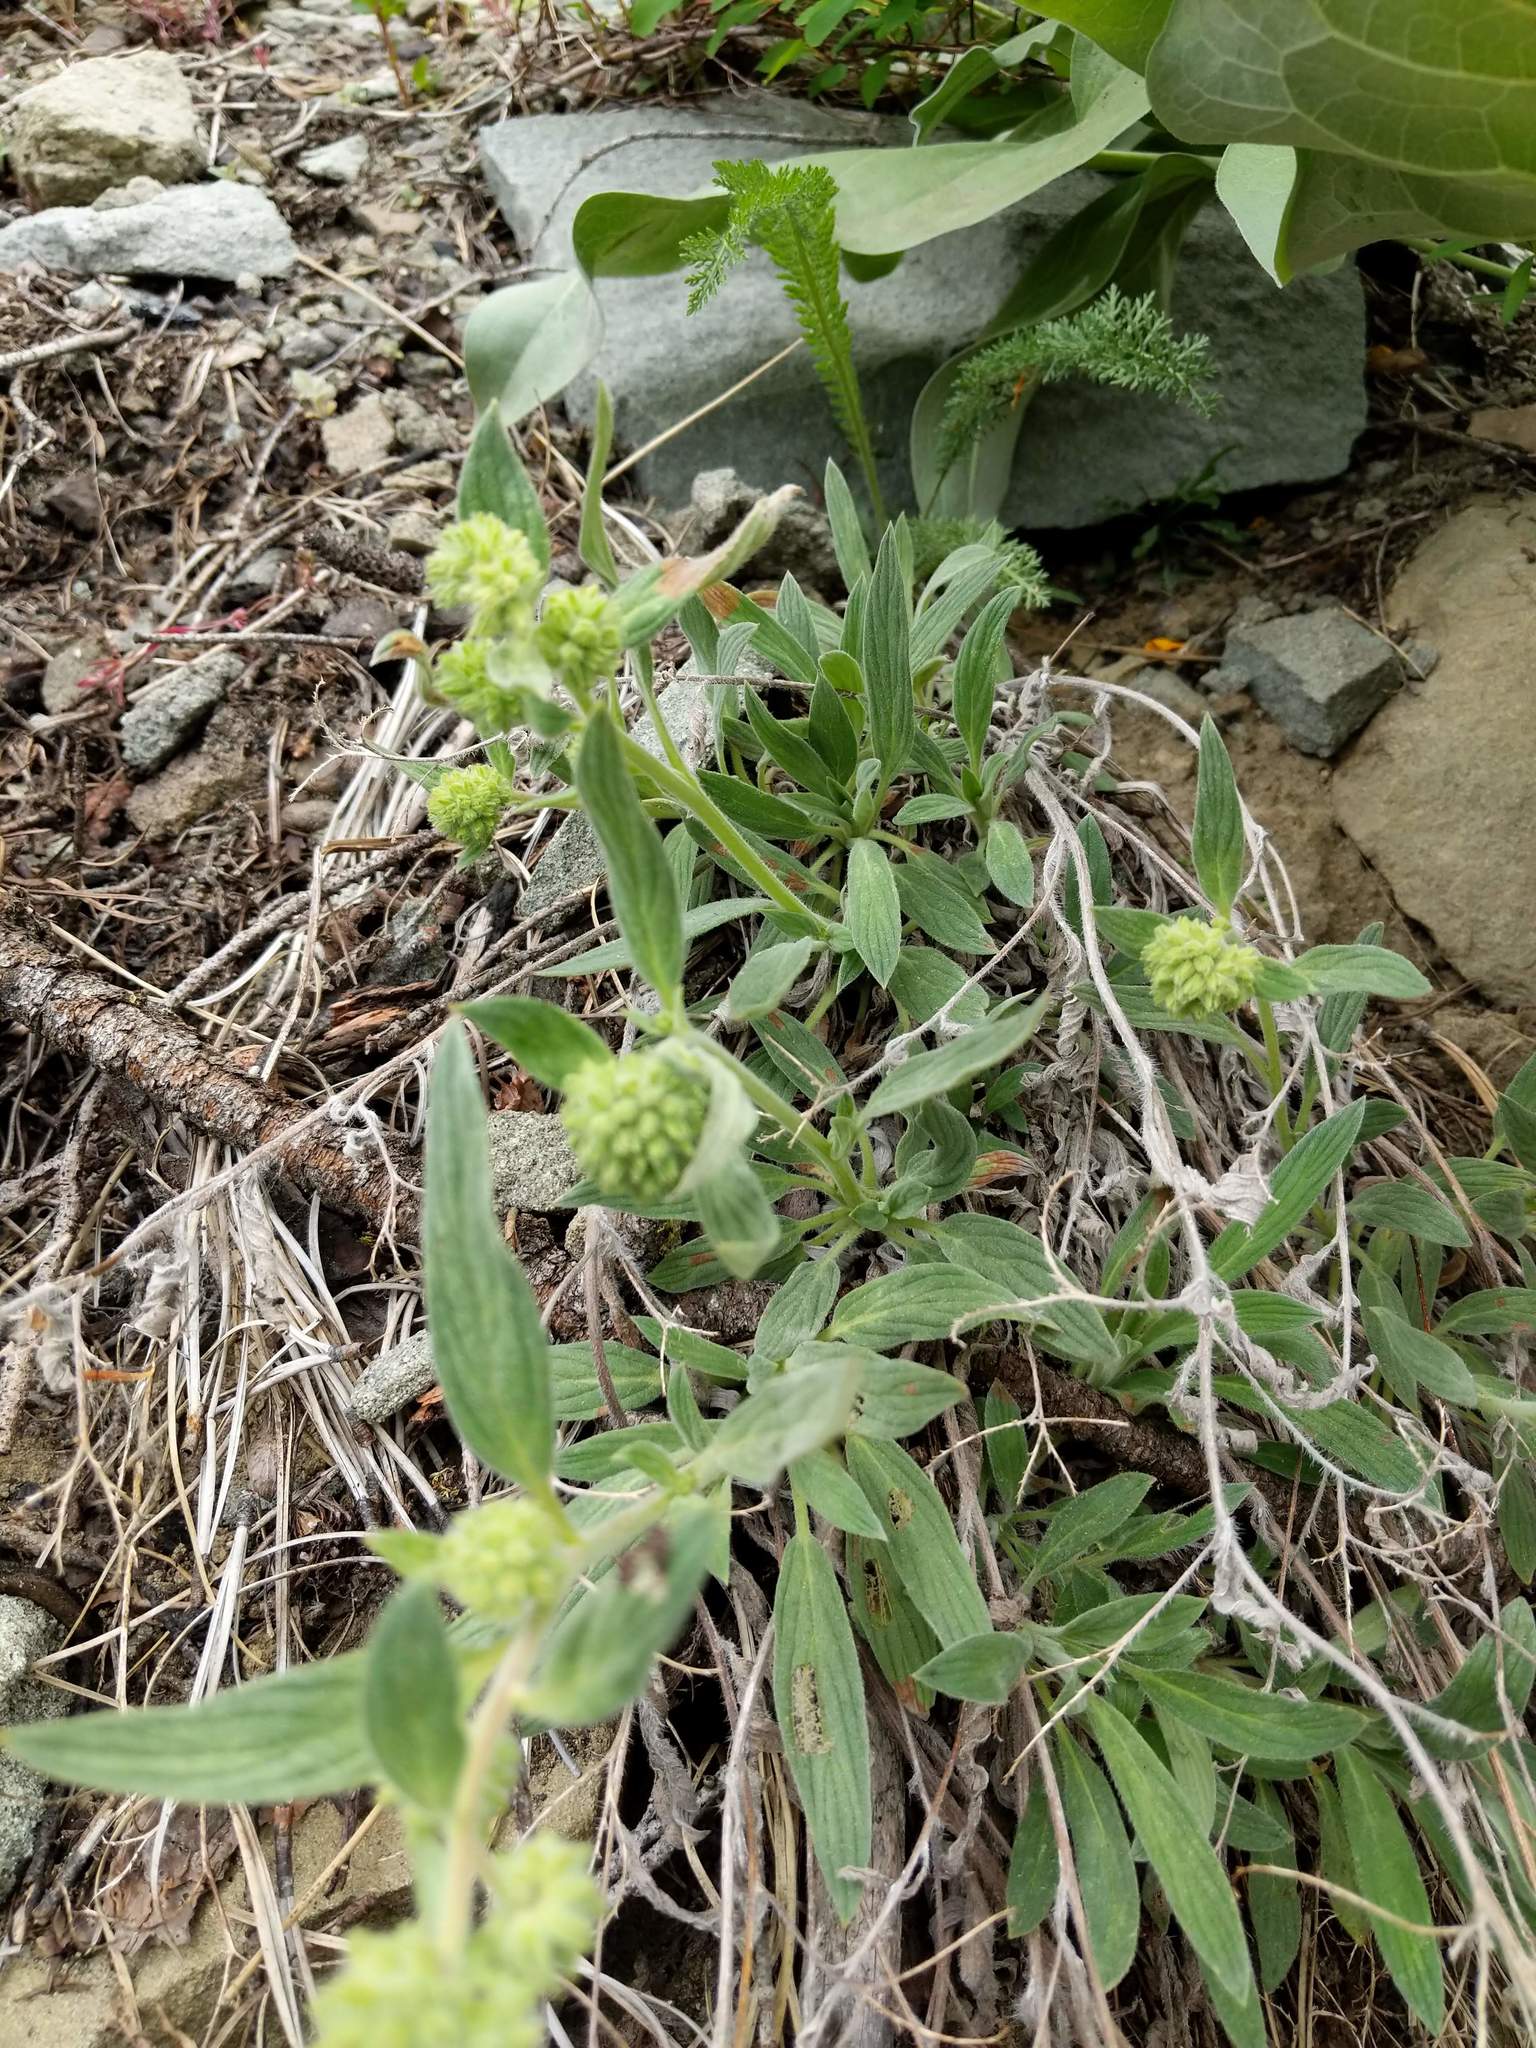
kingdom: Plantae
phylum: Tracheophyta
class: Magnoliopsida
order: Boraginales
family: Hydrophyllaceae
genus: Phacelia
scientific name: Phacelia hastata
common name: Silver-leaved phacelia
